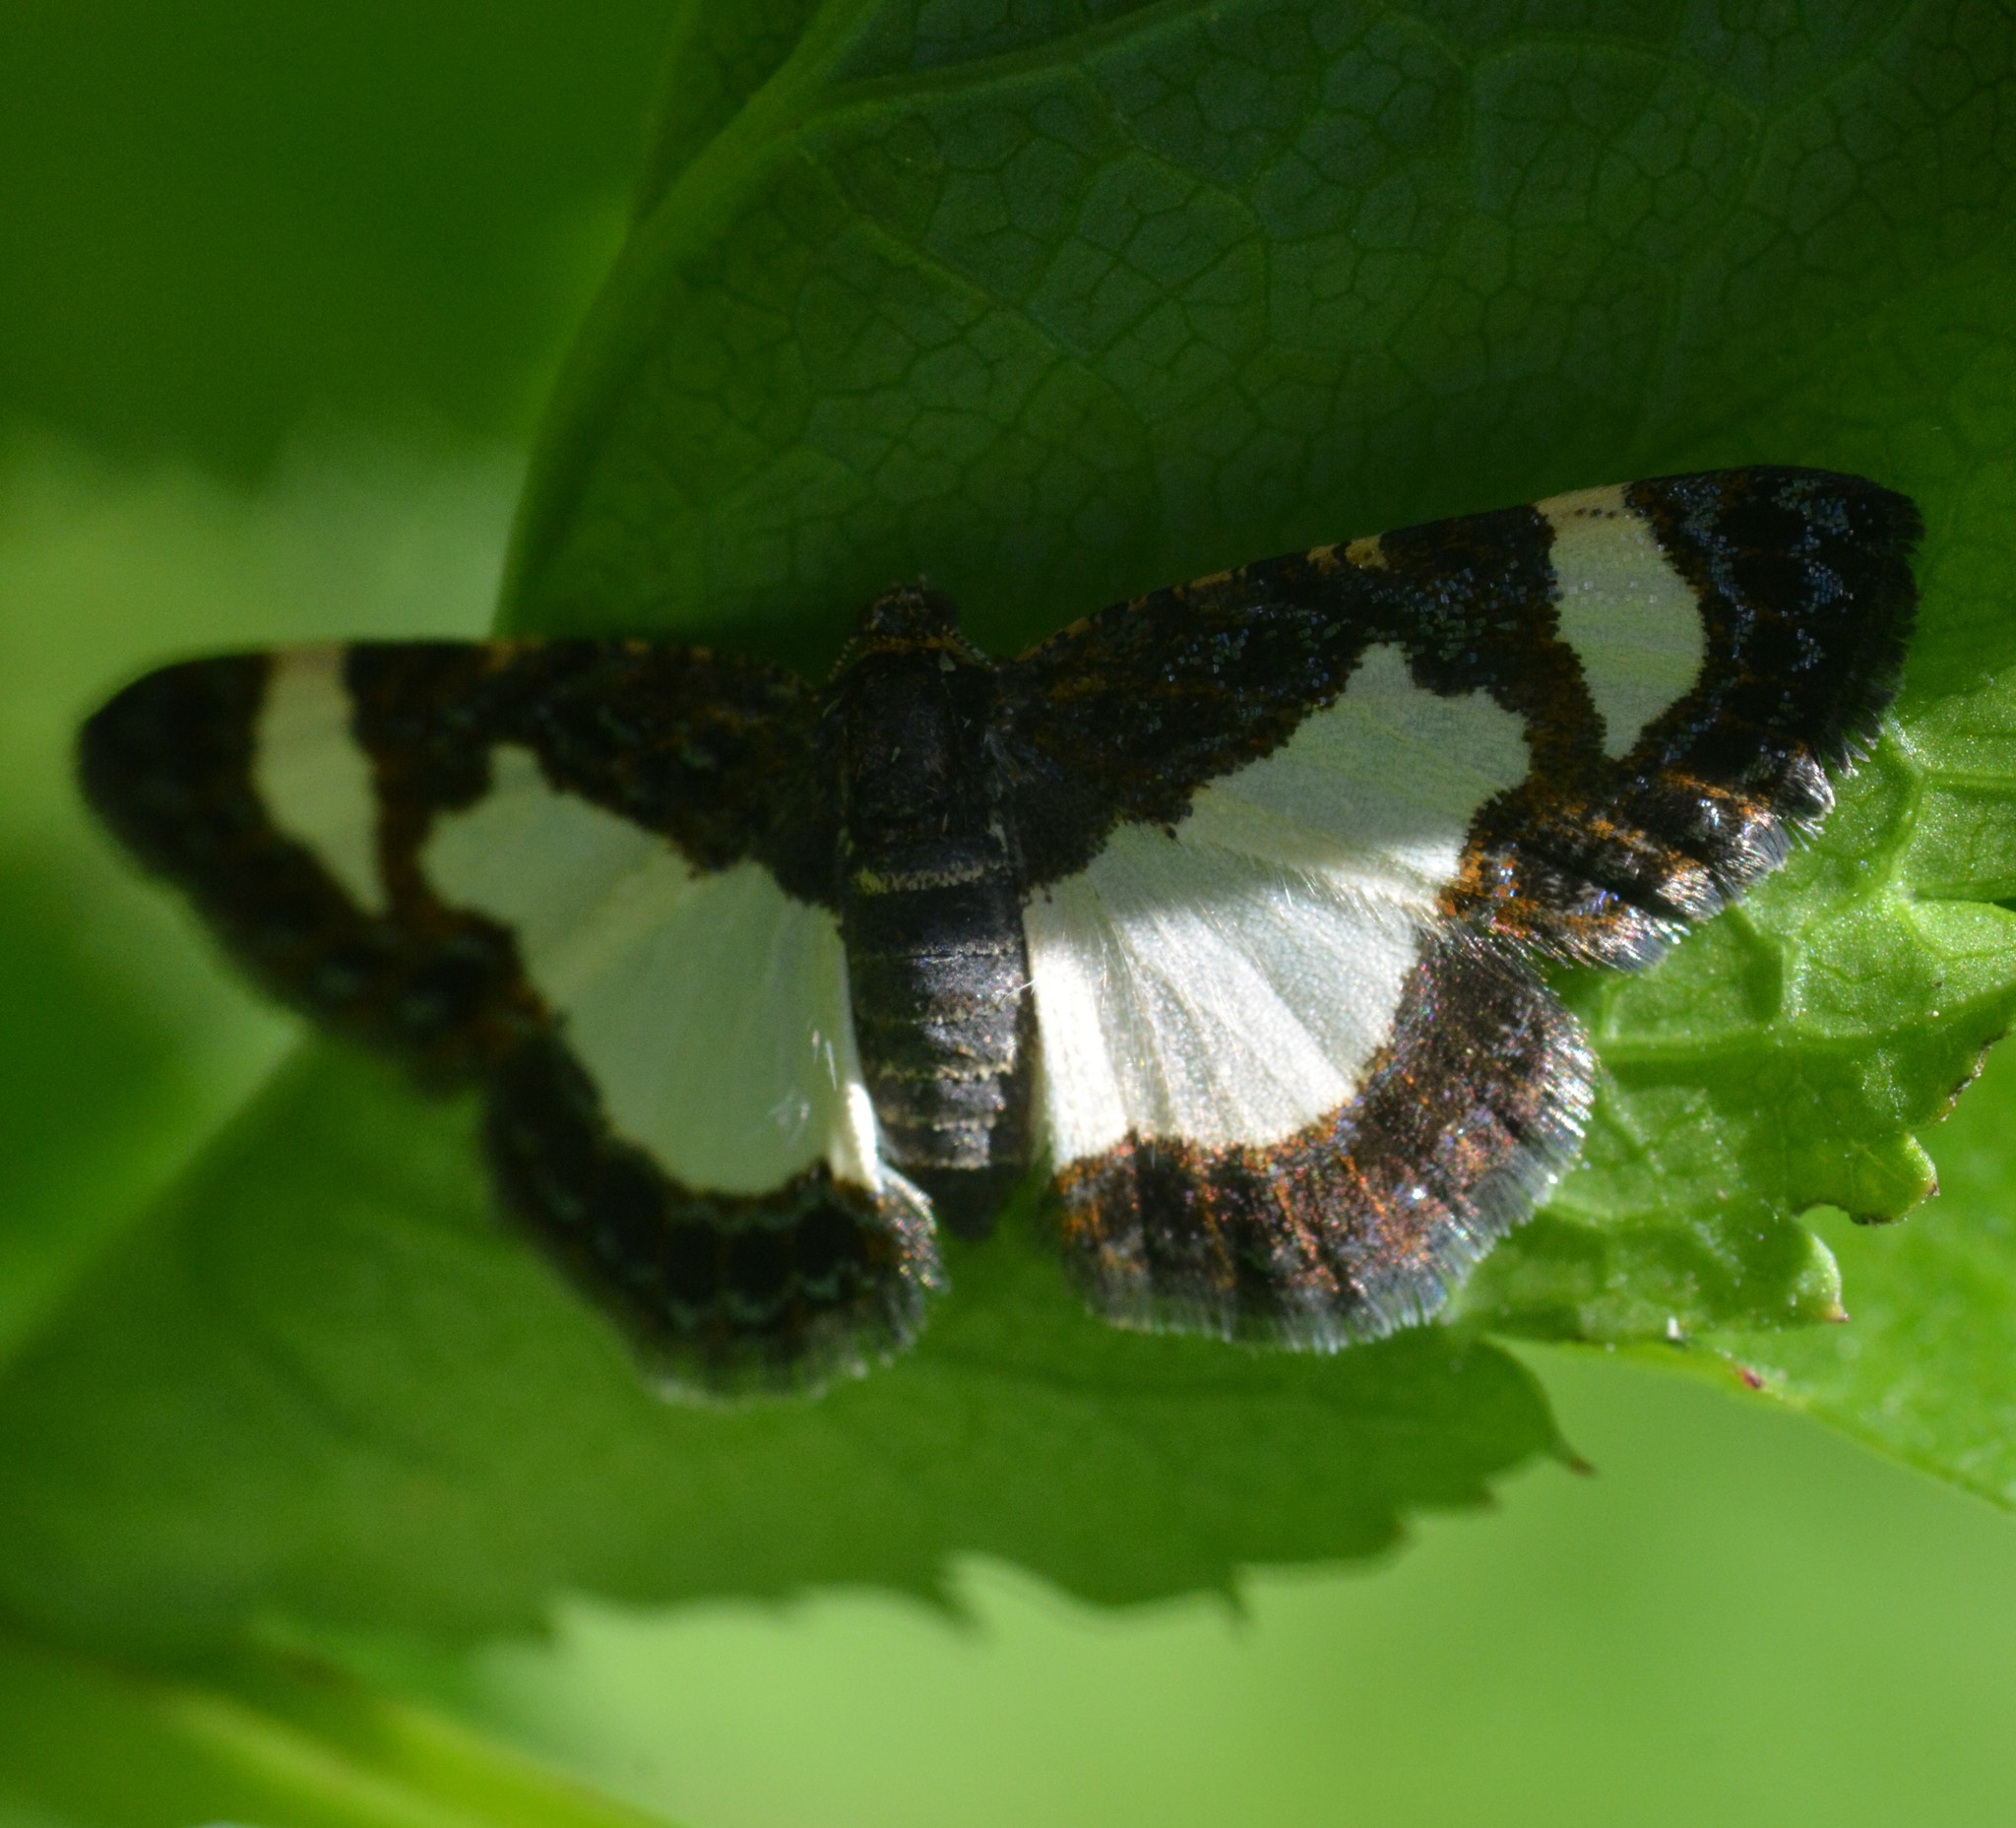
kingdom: Animalia
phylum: Arthropoda
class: Insecta
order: Lepidoptera
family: Geometridae
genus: Heliomata
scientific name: Heliomata cycladata
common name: Common spring moth
